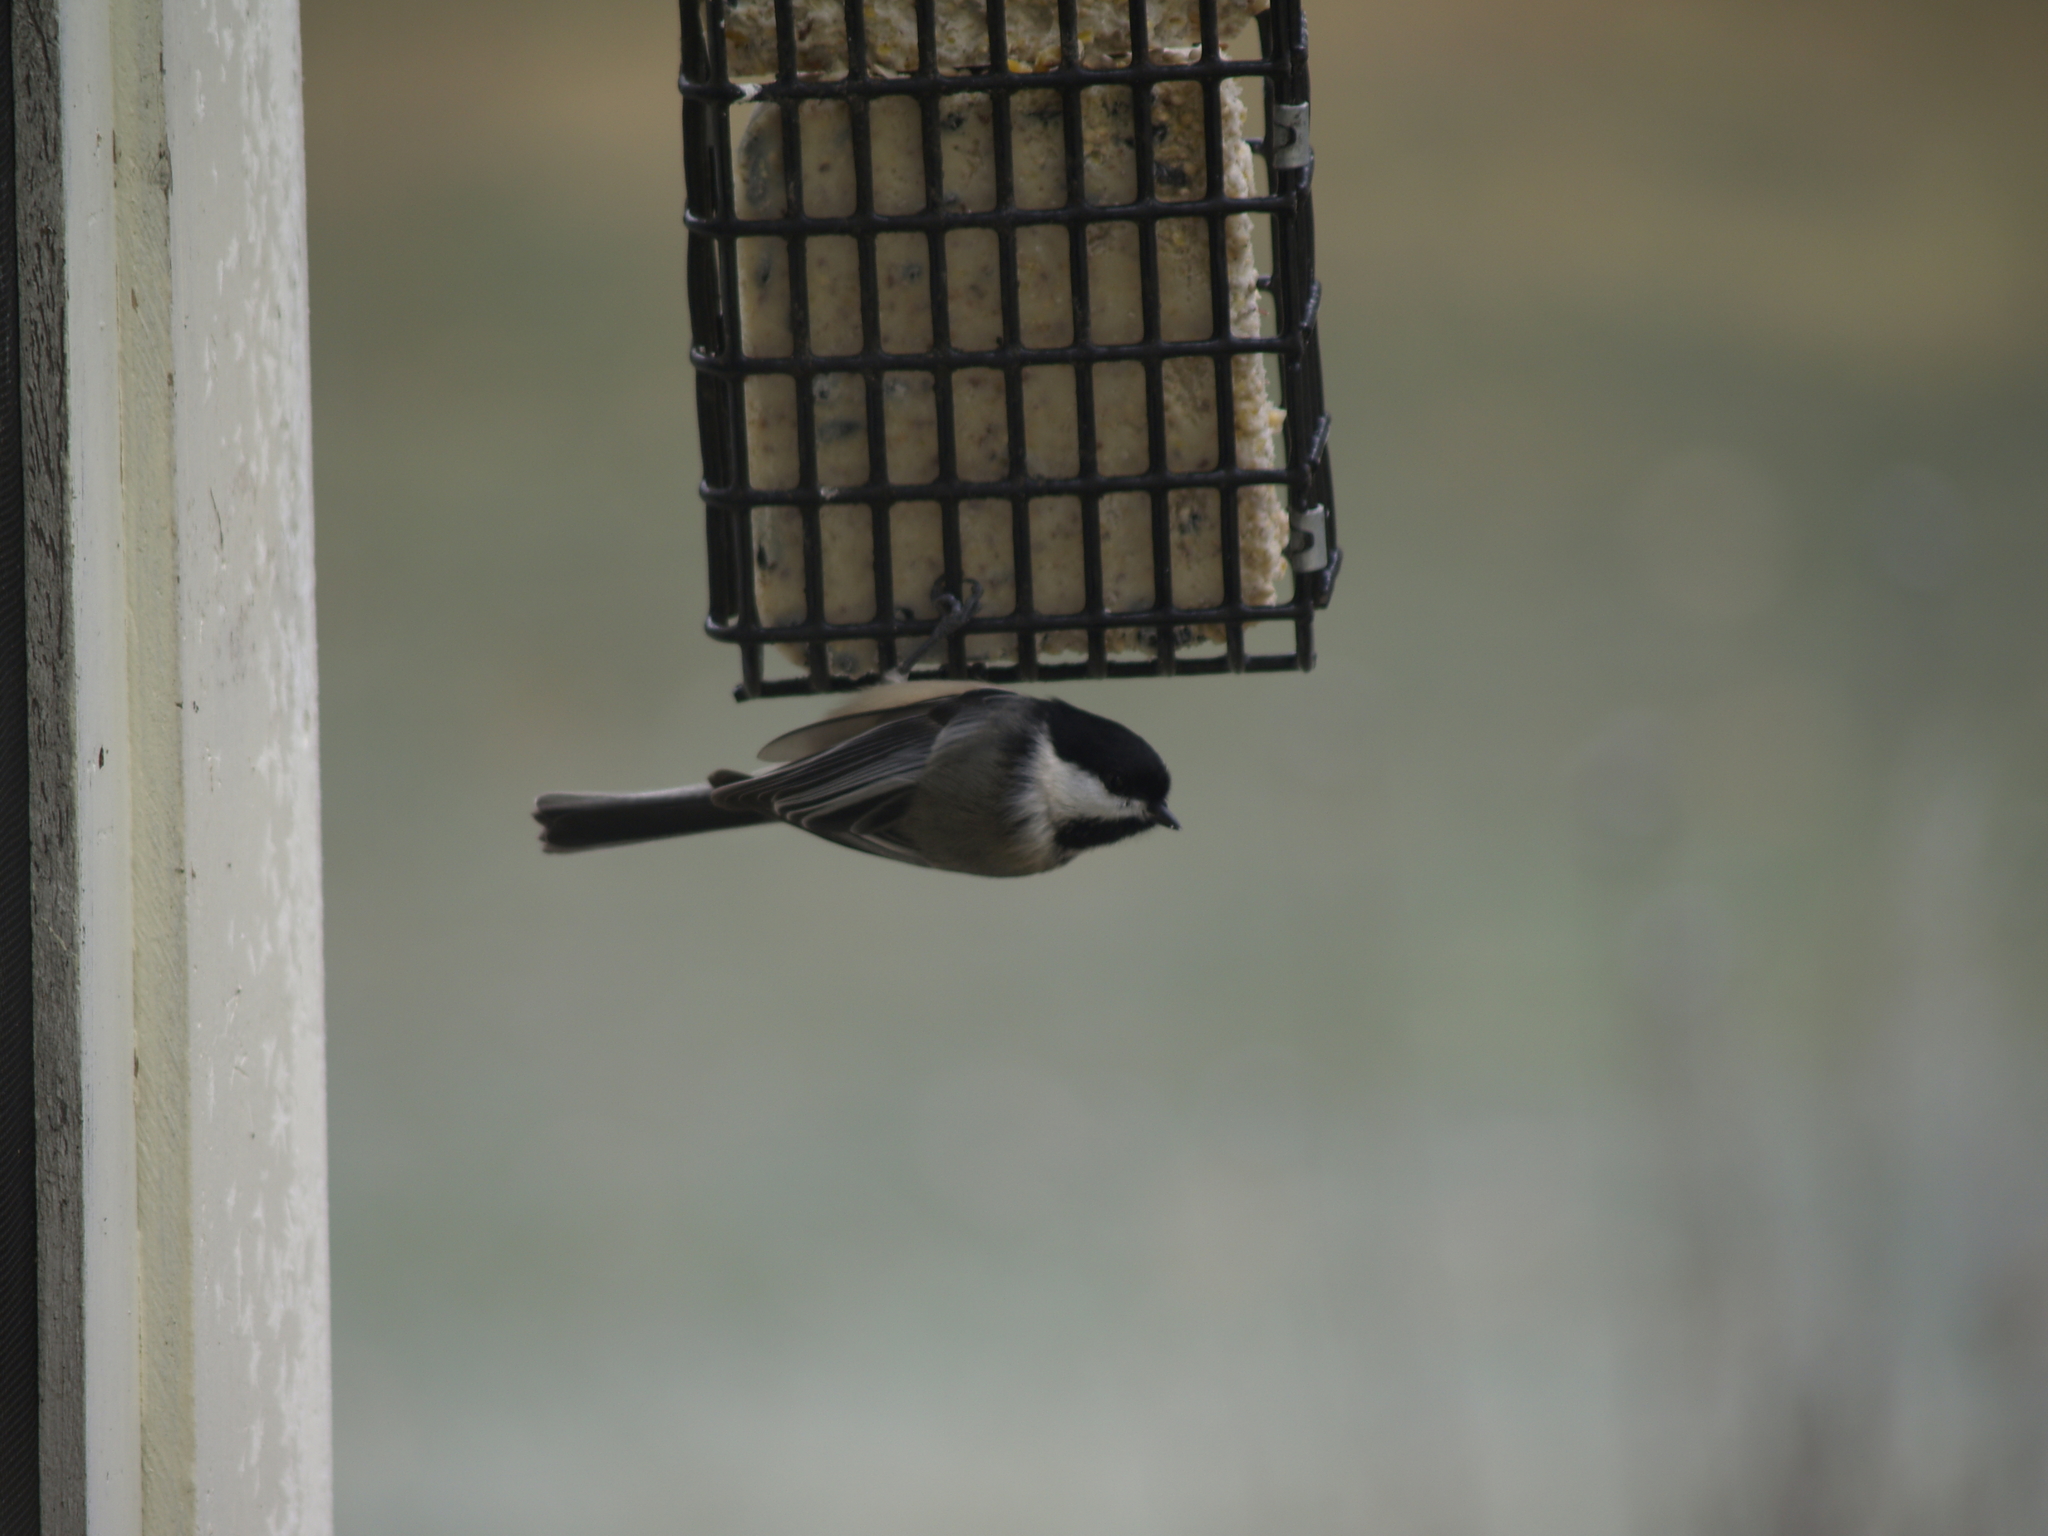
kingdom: Animalia
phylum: Chordata
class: Aves
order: Passeriformes
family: Paridae
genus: Poecile
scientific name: Poecile atricapillus
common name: Black-capped chickadee
